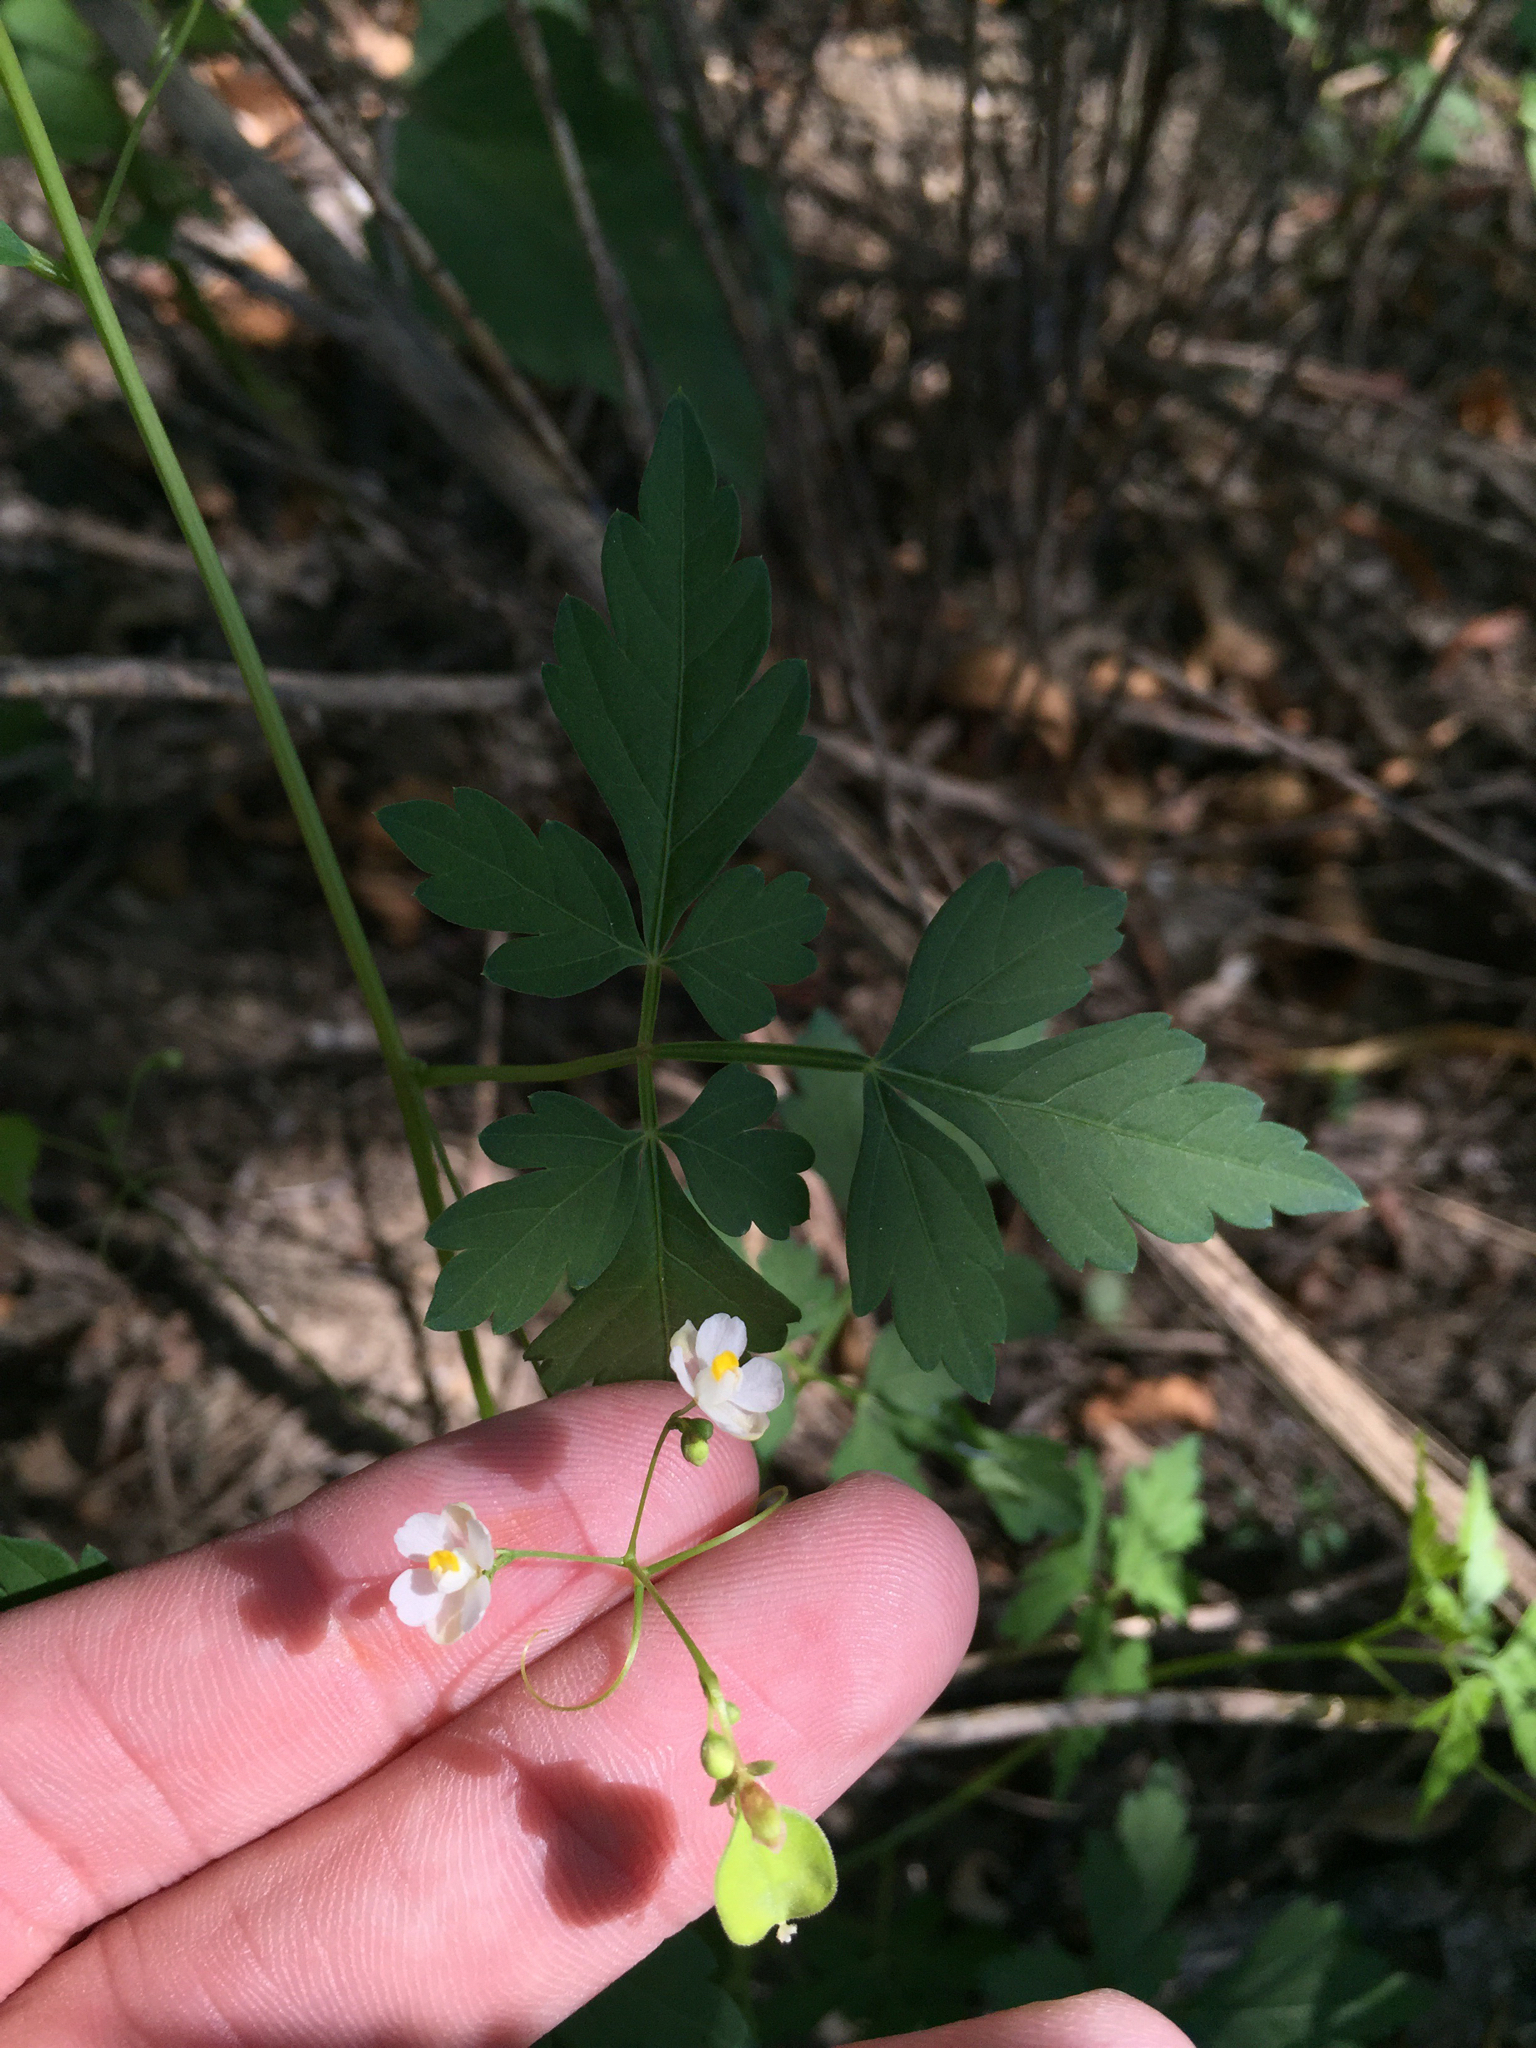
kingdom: Plantae
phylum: Tracheophyta
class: Magnoliopsida
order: Sapindales
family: Sapindaceae
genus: Cardiospermum
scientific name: Cardiospermum halicacabum
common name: Balloon vine
